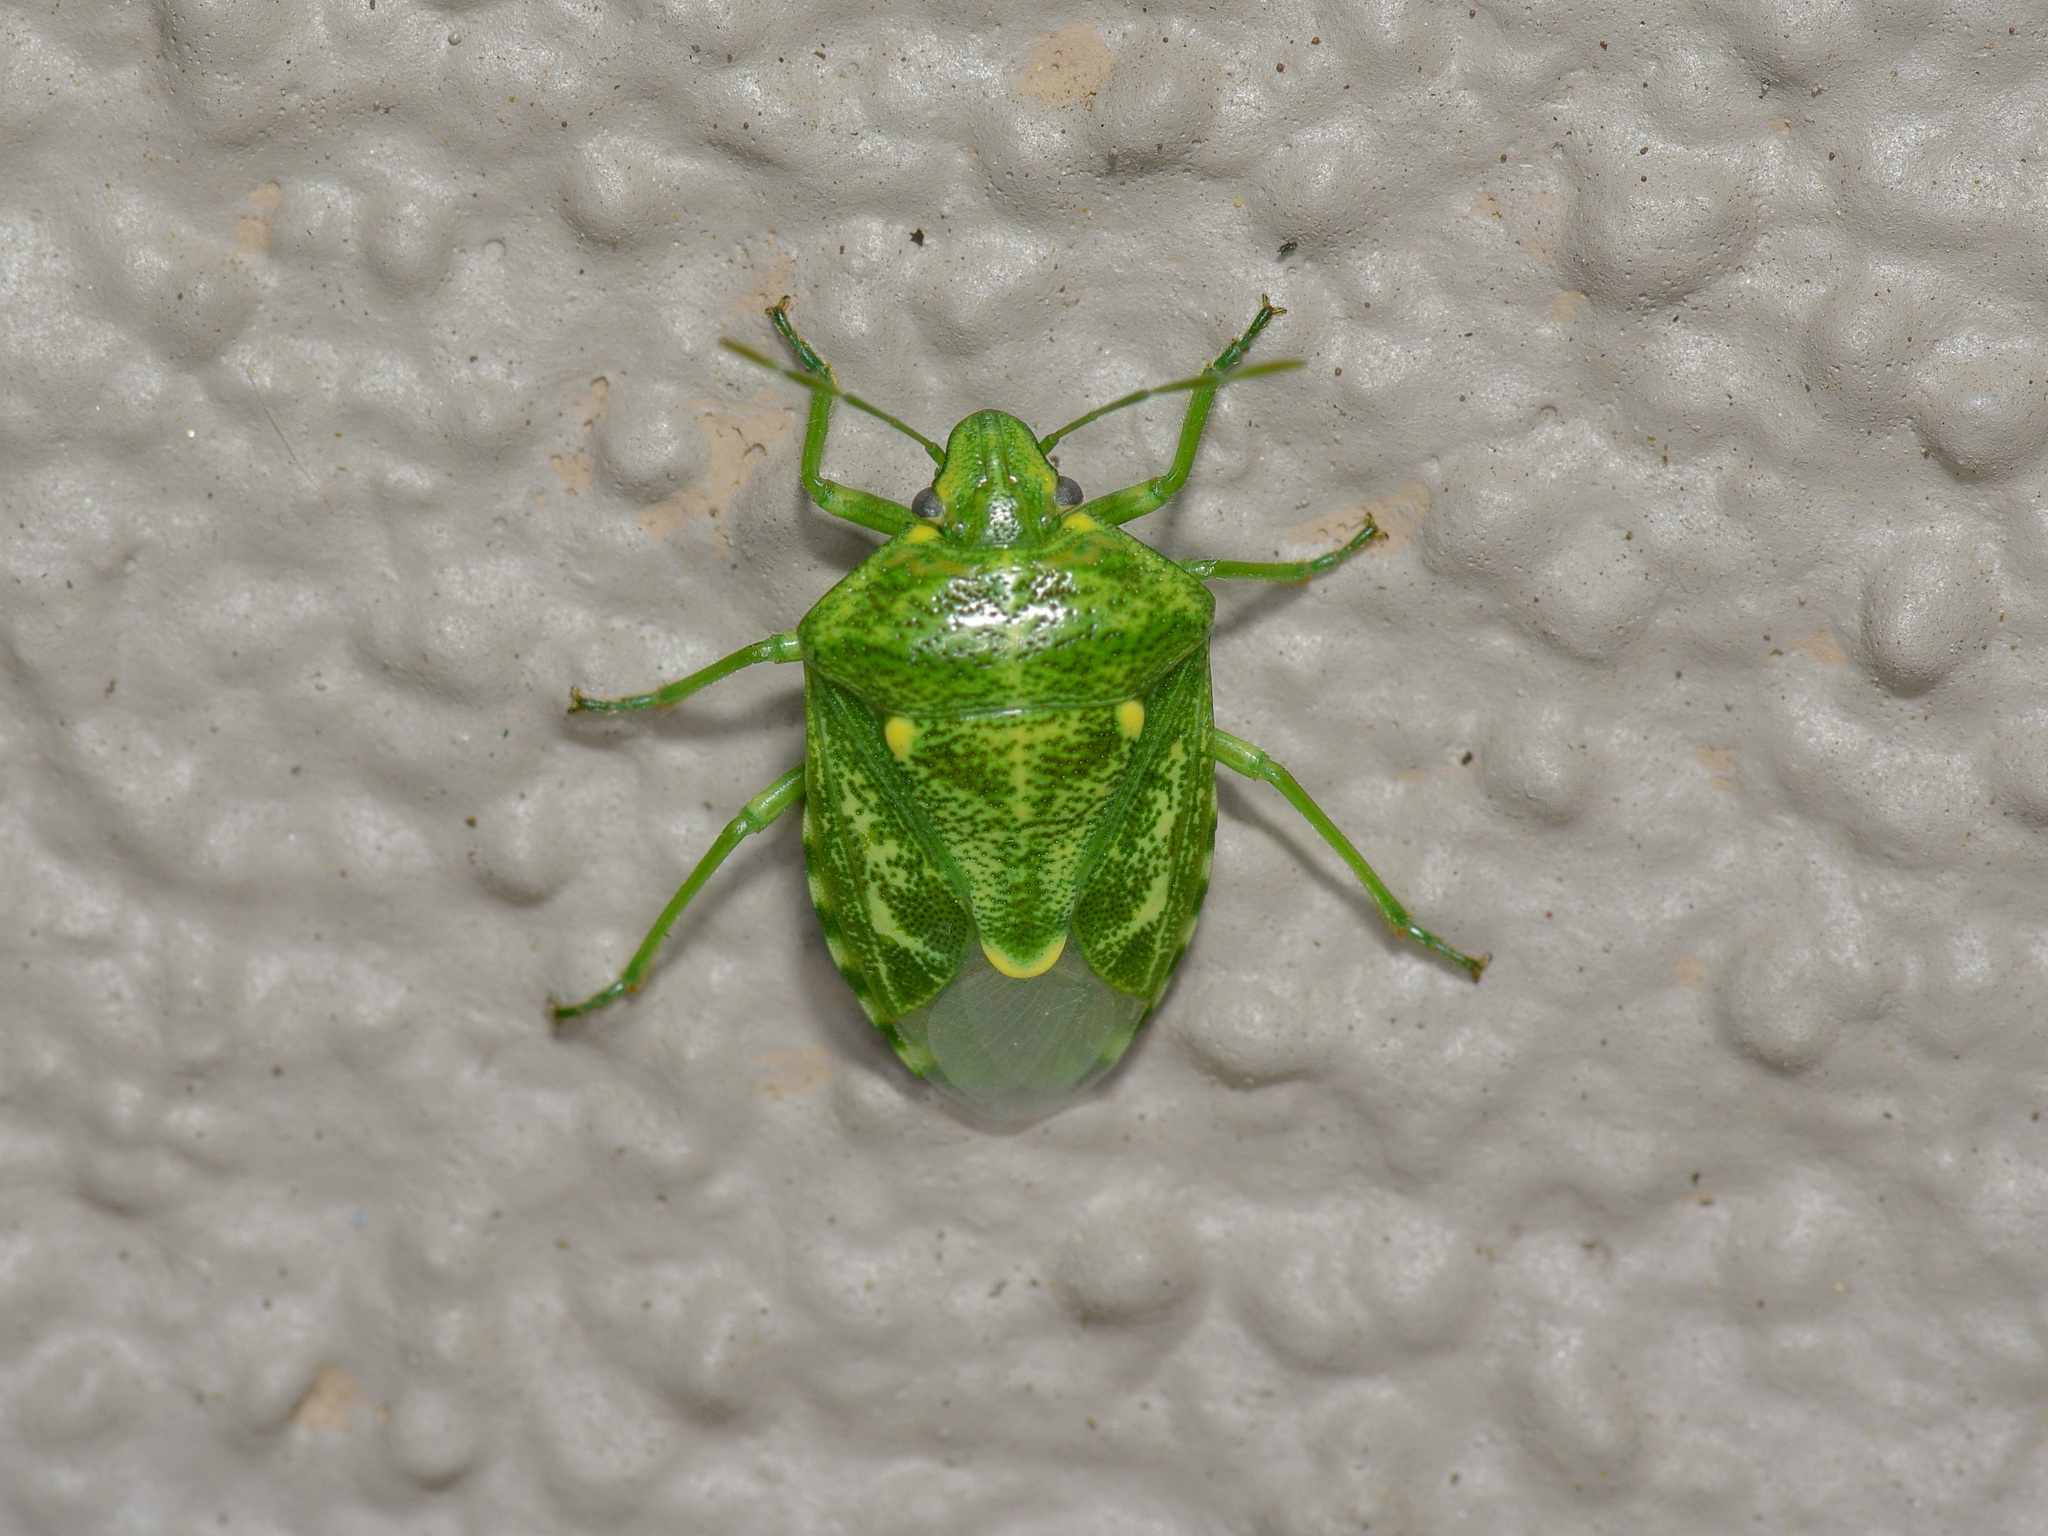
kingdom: Animalia
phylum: Arthropoda
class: Insecta
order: Hemiptera
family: Pentatomidae
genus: Banasa
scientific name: Banasa euchlora
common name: Cedar berry bug
